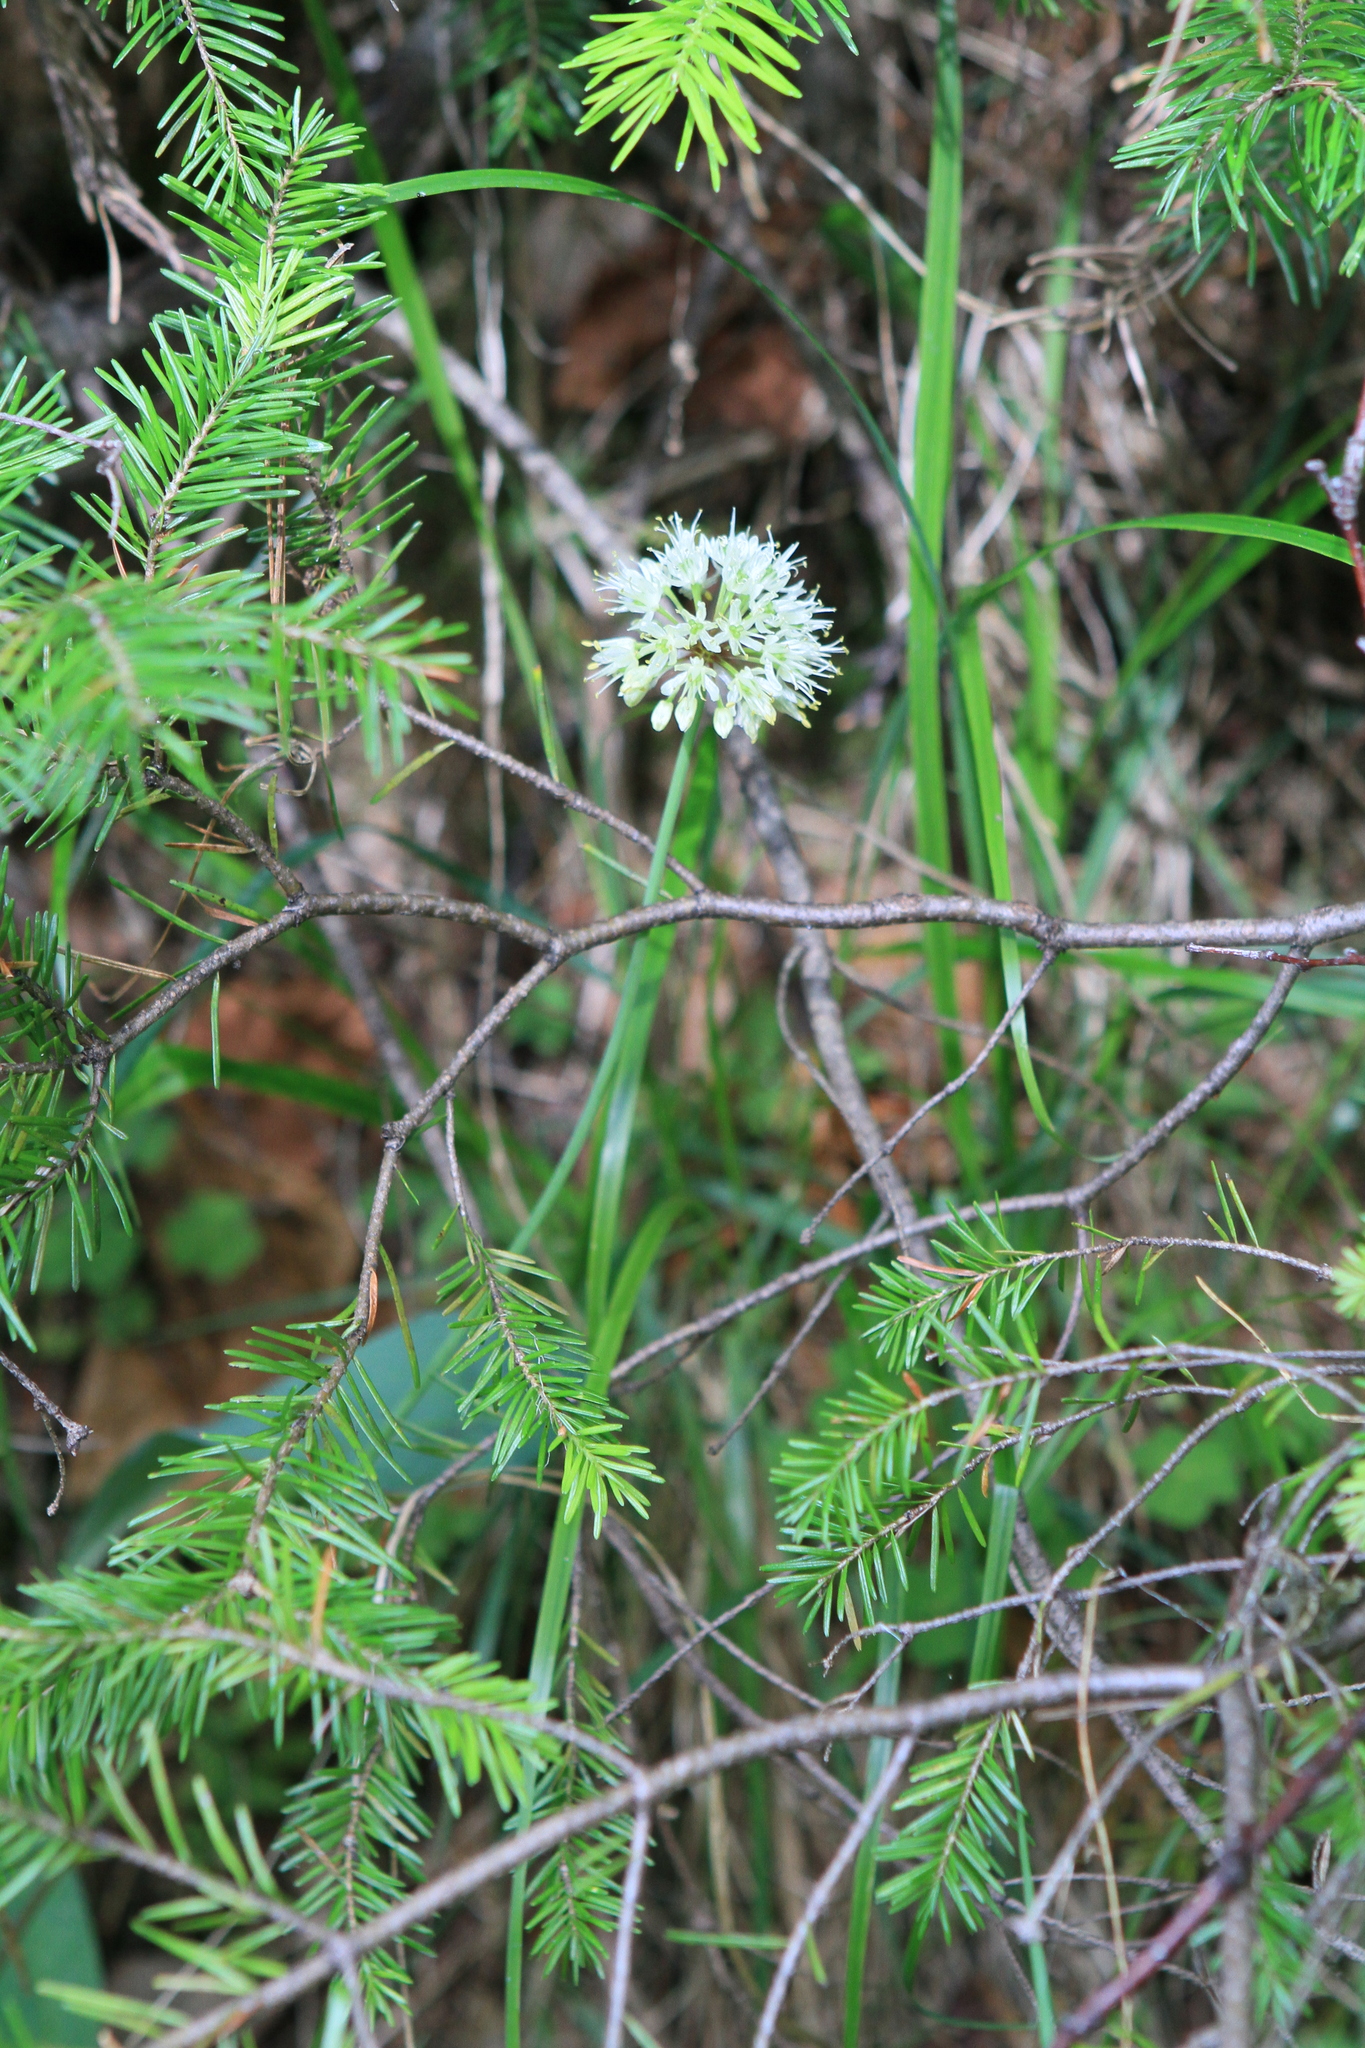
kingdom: Plantae
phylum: Tracheophyta
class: Liliopsida
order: Asparagales
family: Amaryllidaceae
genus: Allium
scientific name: Allium microdictyon
